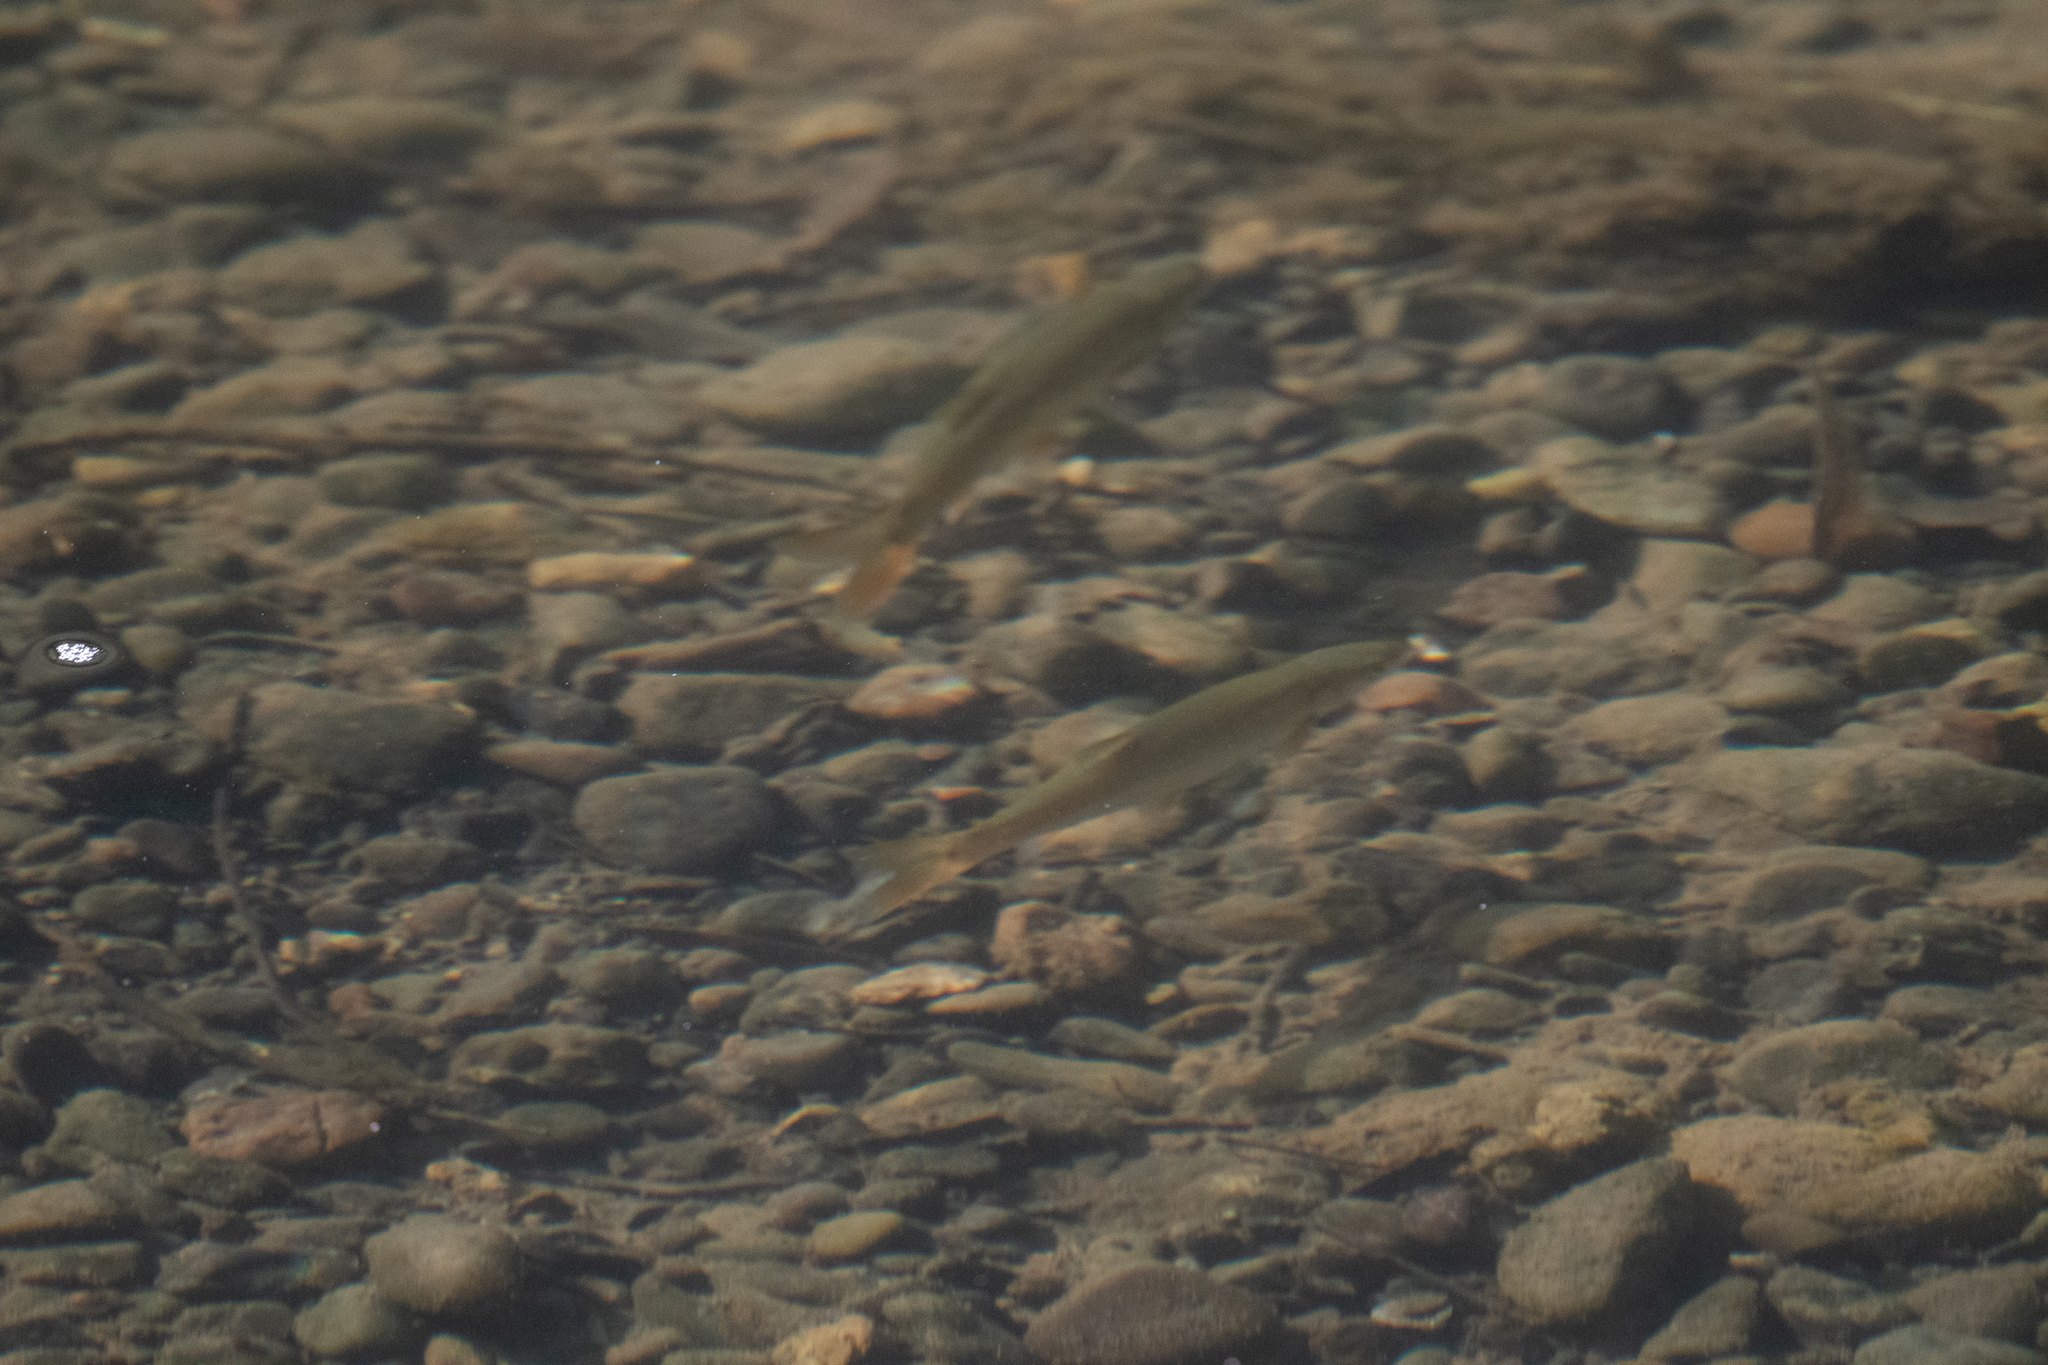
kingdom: Animalia
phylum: Chordata
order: Cypriniformes
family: Cyprinidae
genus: Ptychocheilus
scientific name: Ptychocheilus grandis
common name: Sacramento pikeminnow
